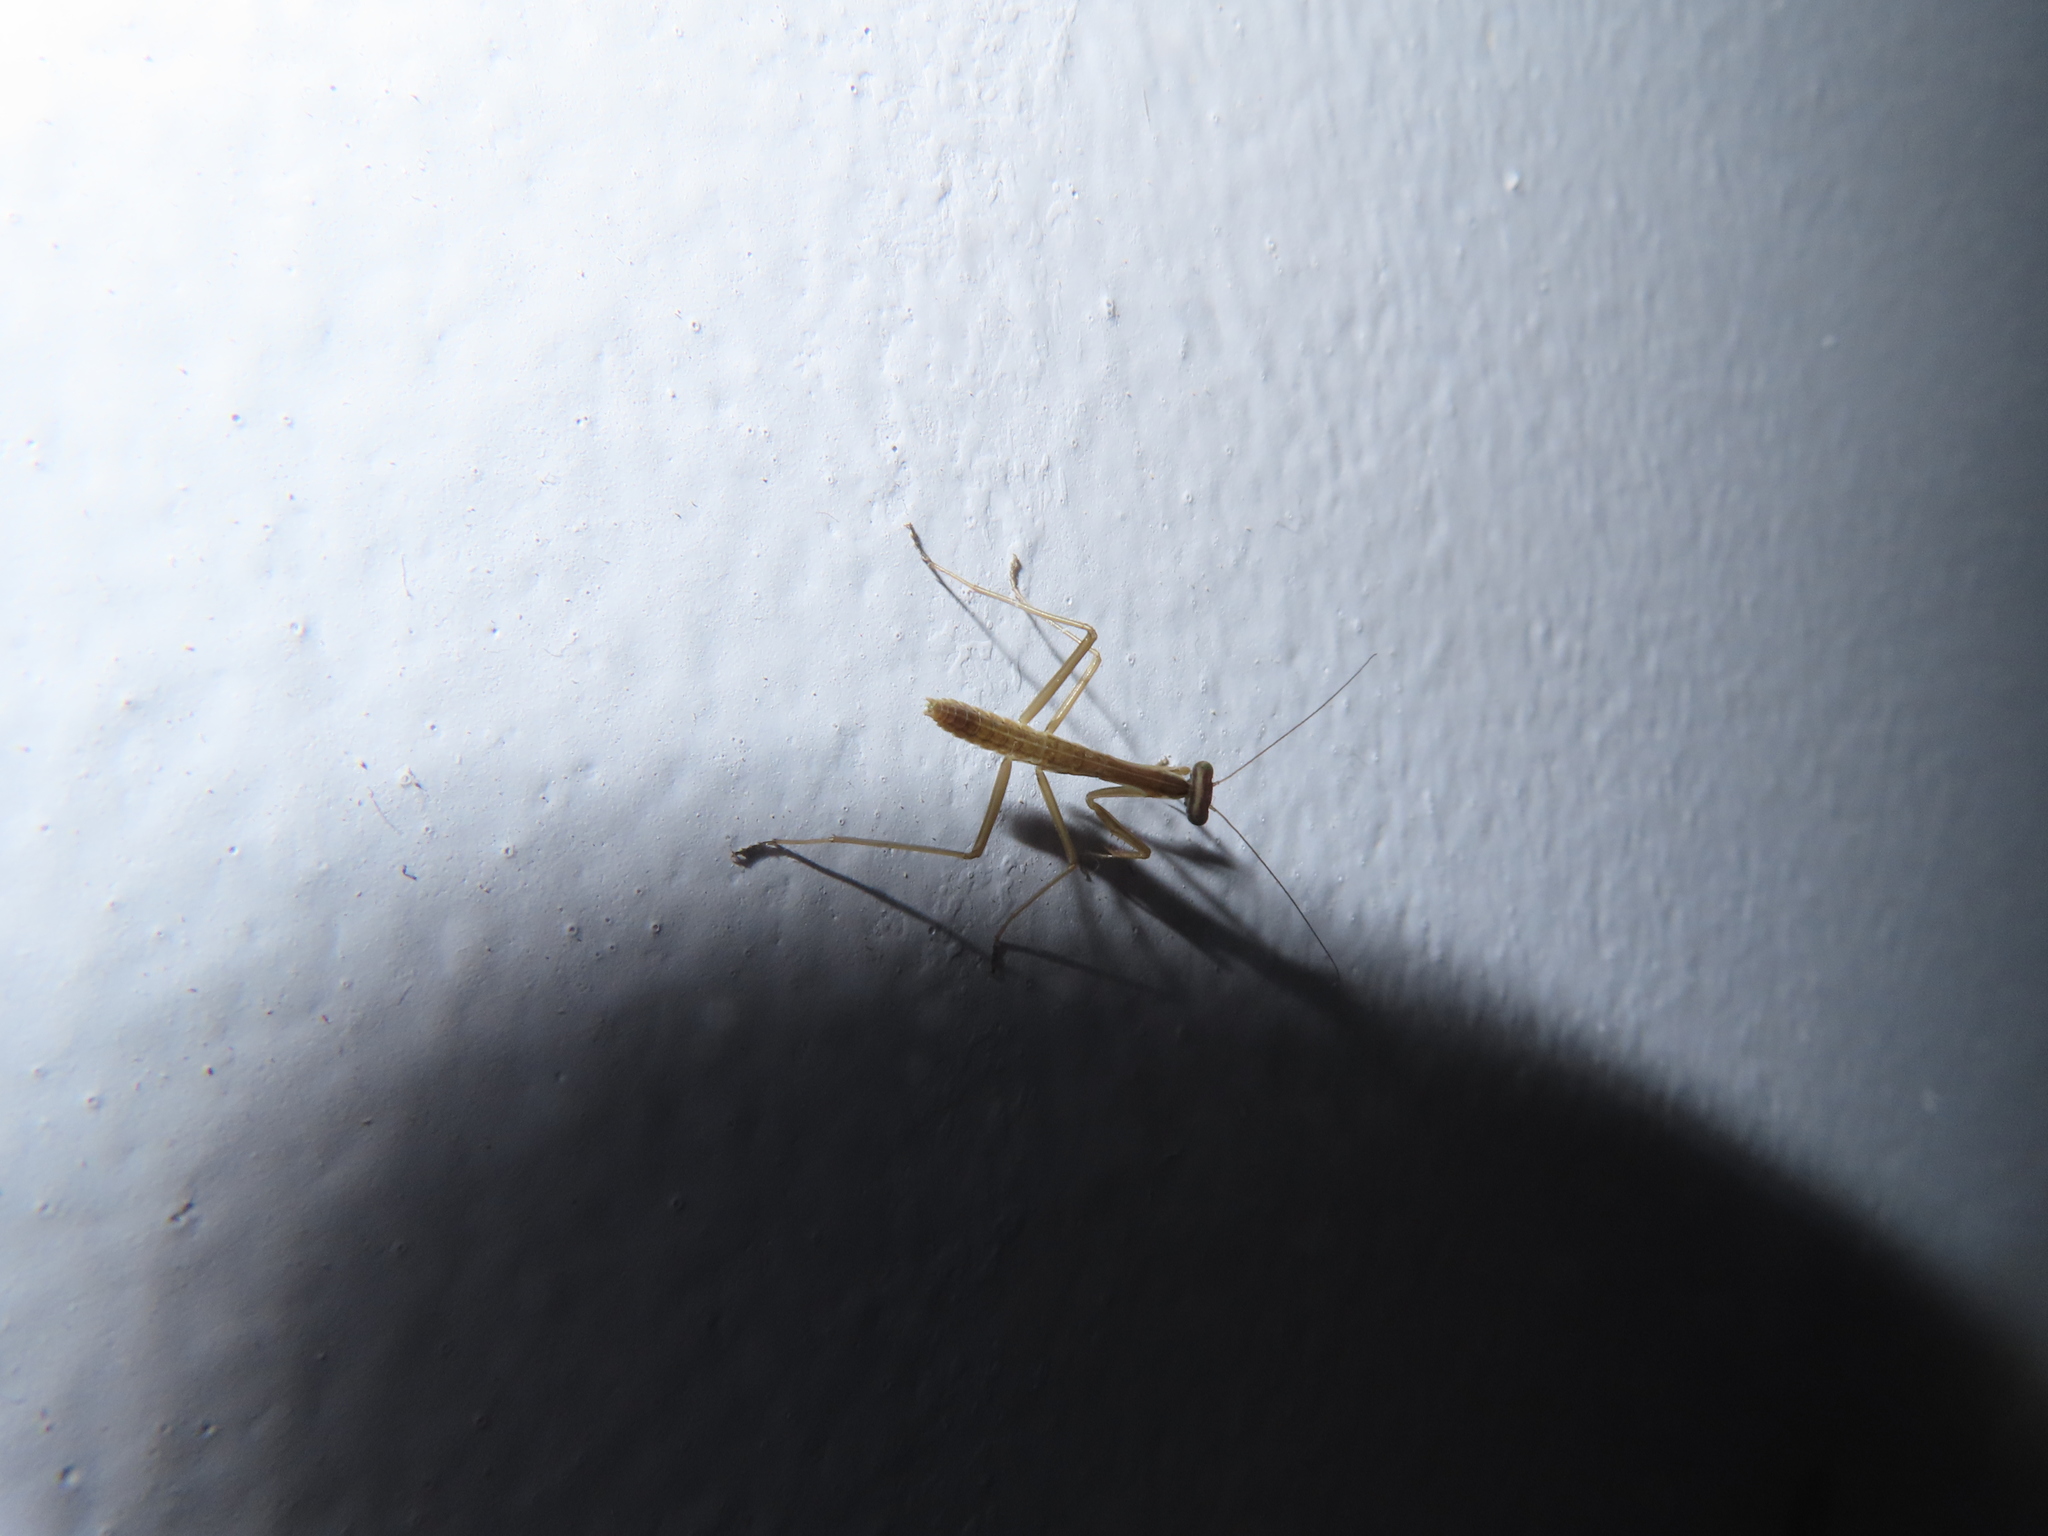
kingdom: Animalia
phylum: Arthropoda
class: Insecta
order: Mantodea
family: Mantidae
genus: Tenodera
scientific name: Tenodera sinensis
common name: Chinese mantis
